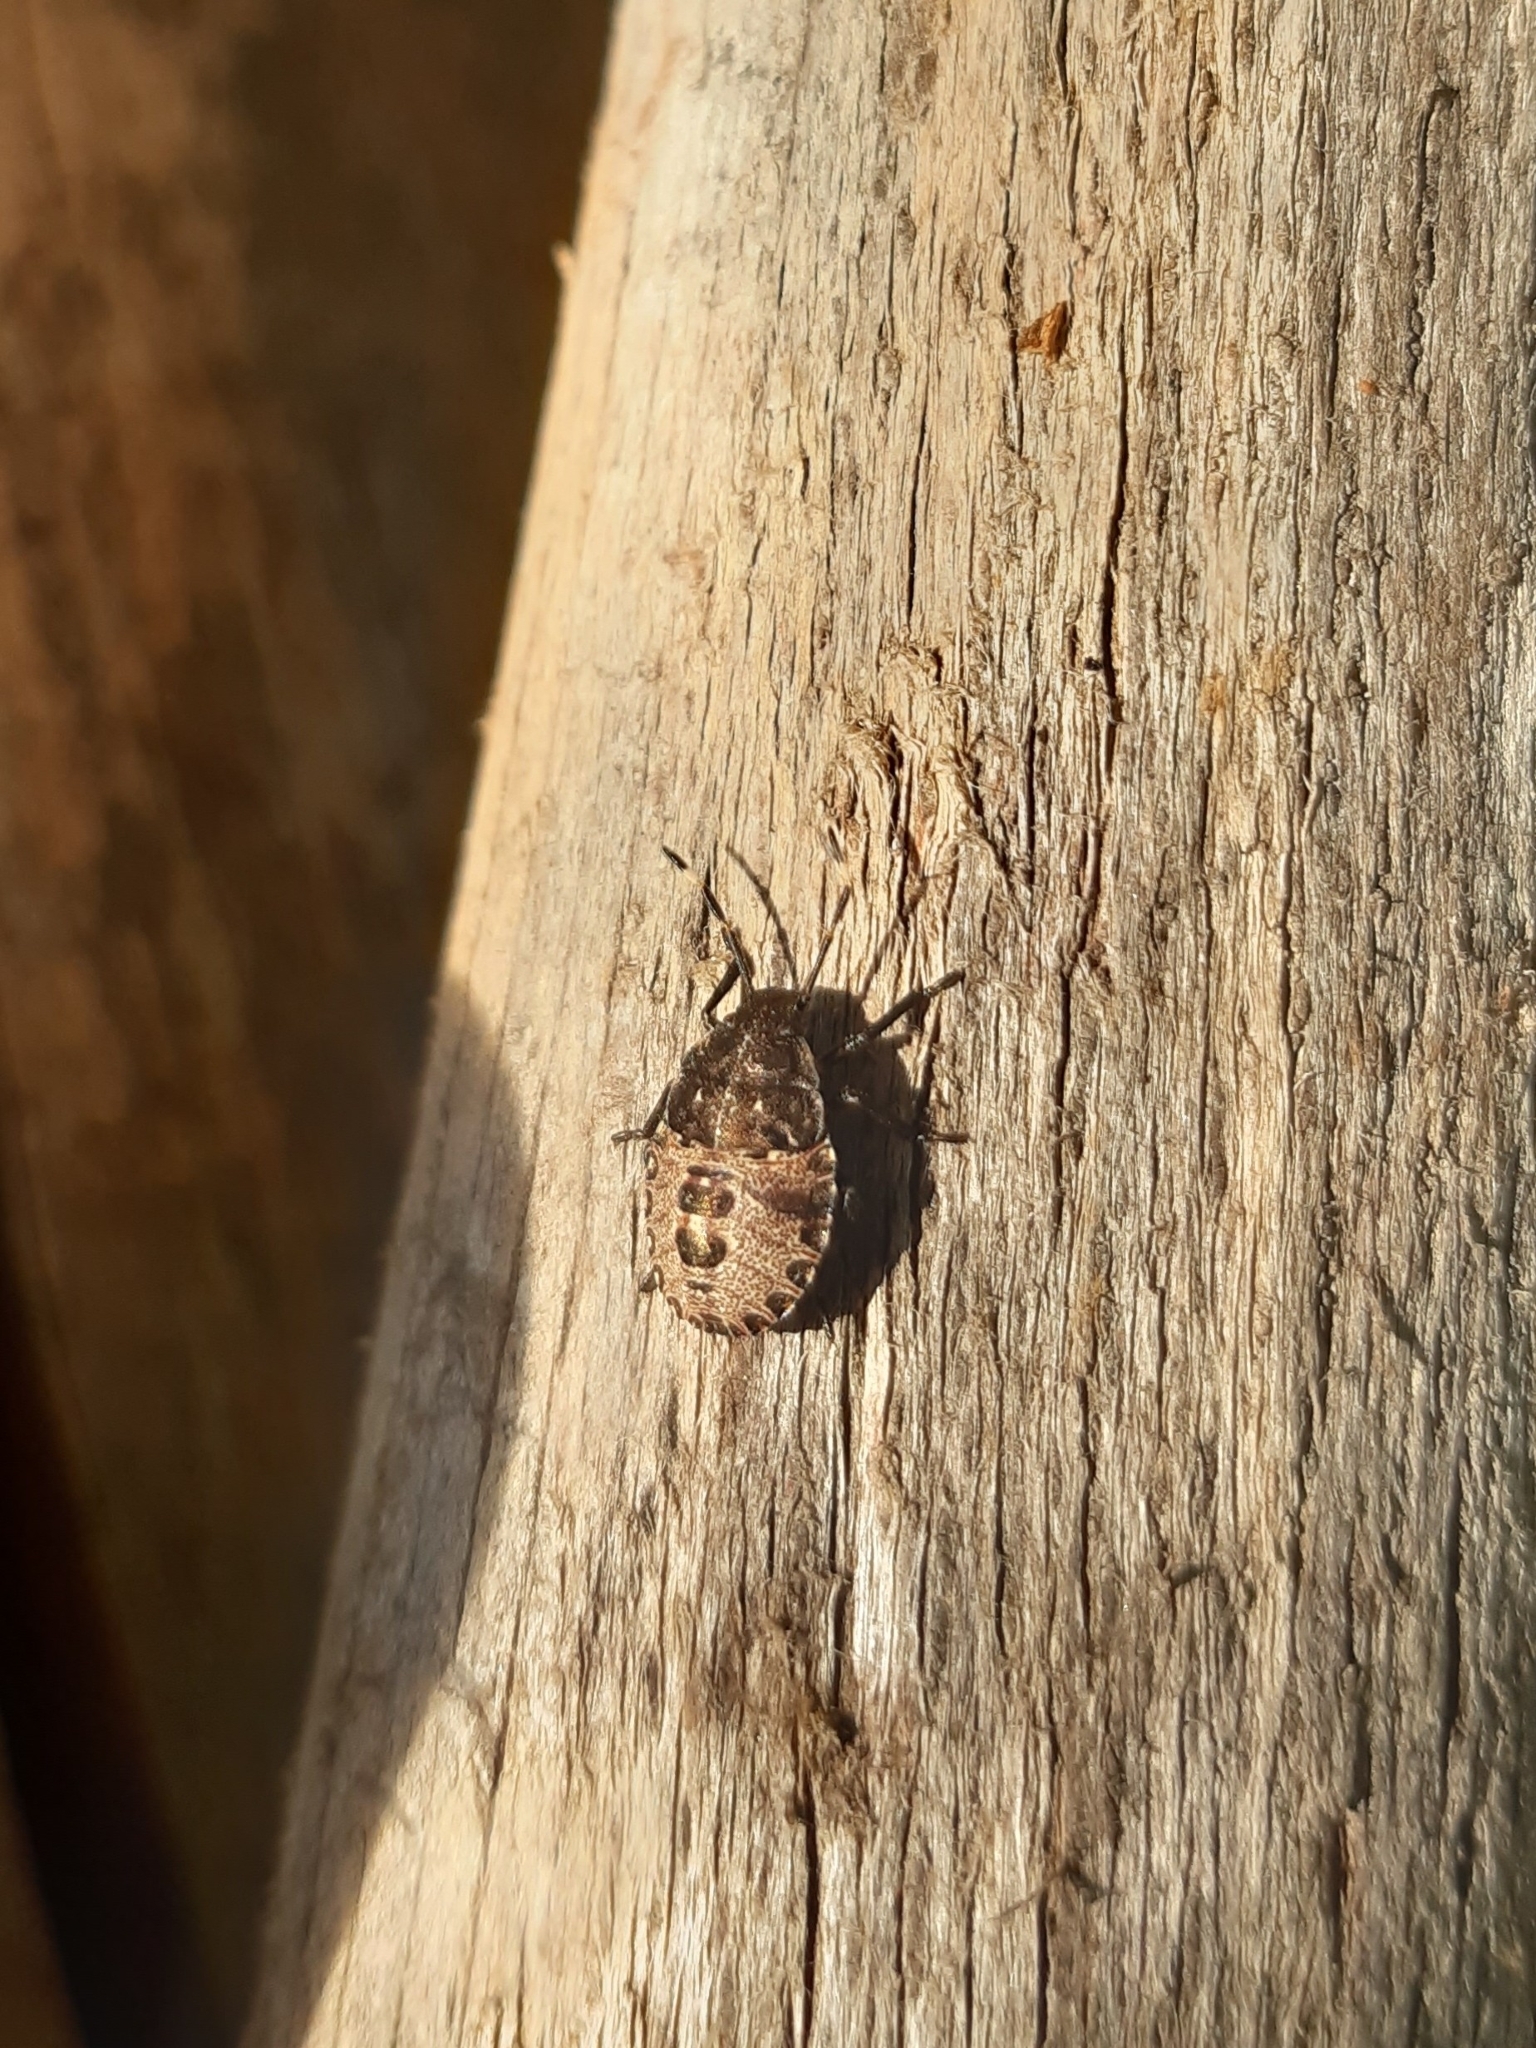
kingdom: Animalia
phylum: Arthropoda
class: Insecta
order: Hemiptera
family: Pentatomidae
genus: Rhaphigaster
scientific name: Rhaphigaster nebulosa
